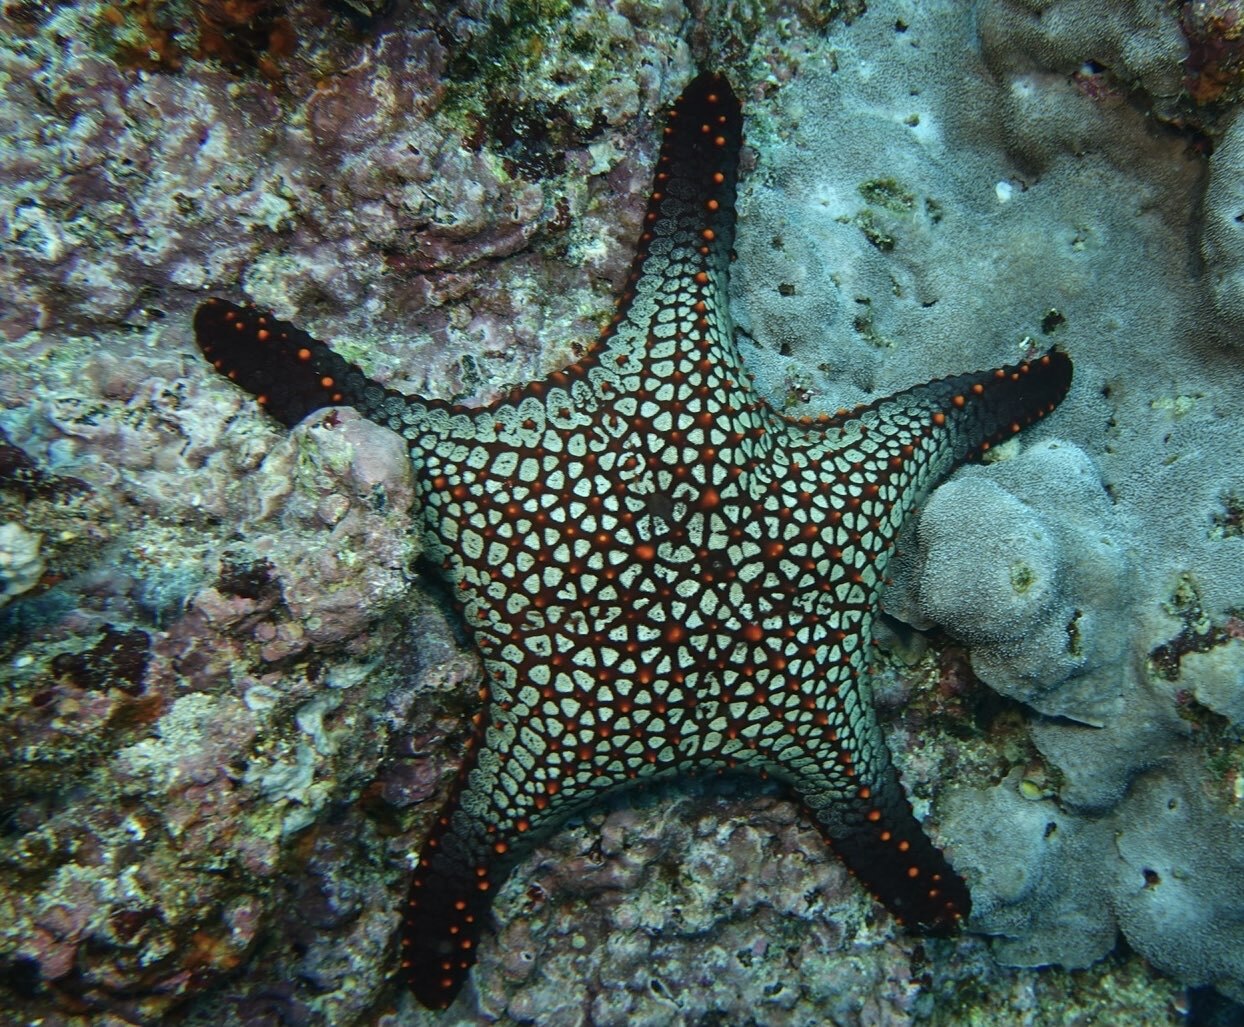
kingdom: Animalia
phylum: Echinodermata
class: Asteroidea
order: Valvatida
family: Oreasteridae
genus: Pentaceraster
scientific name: Pentaceraster cumingi
